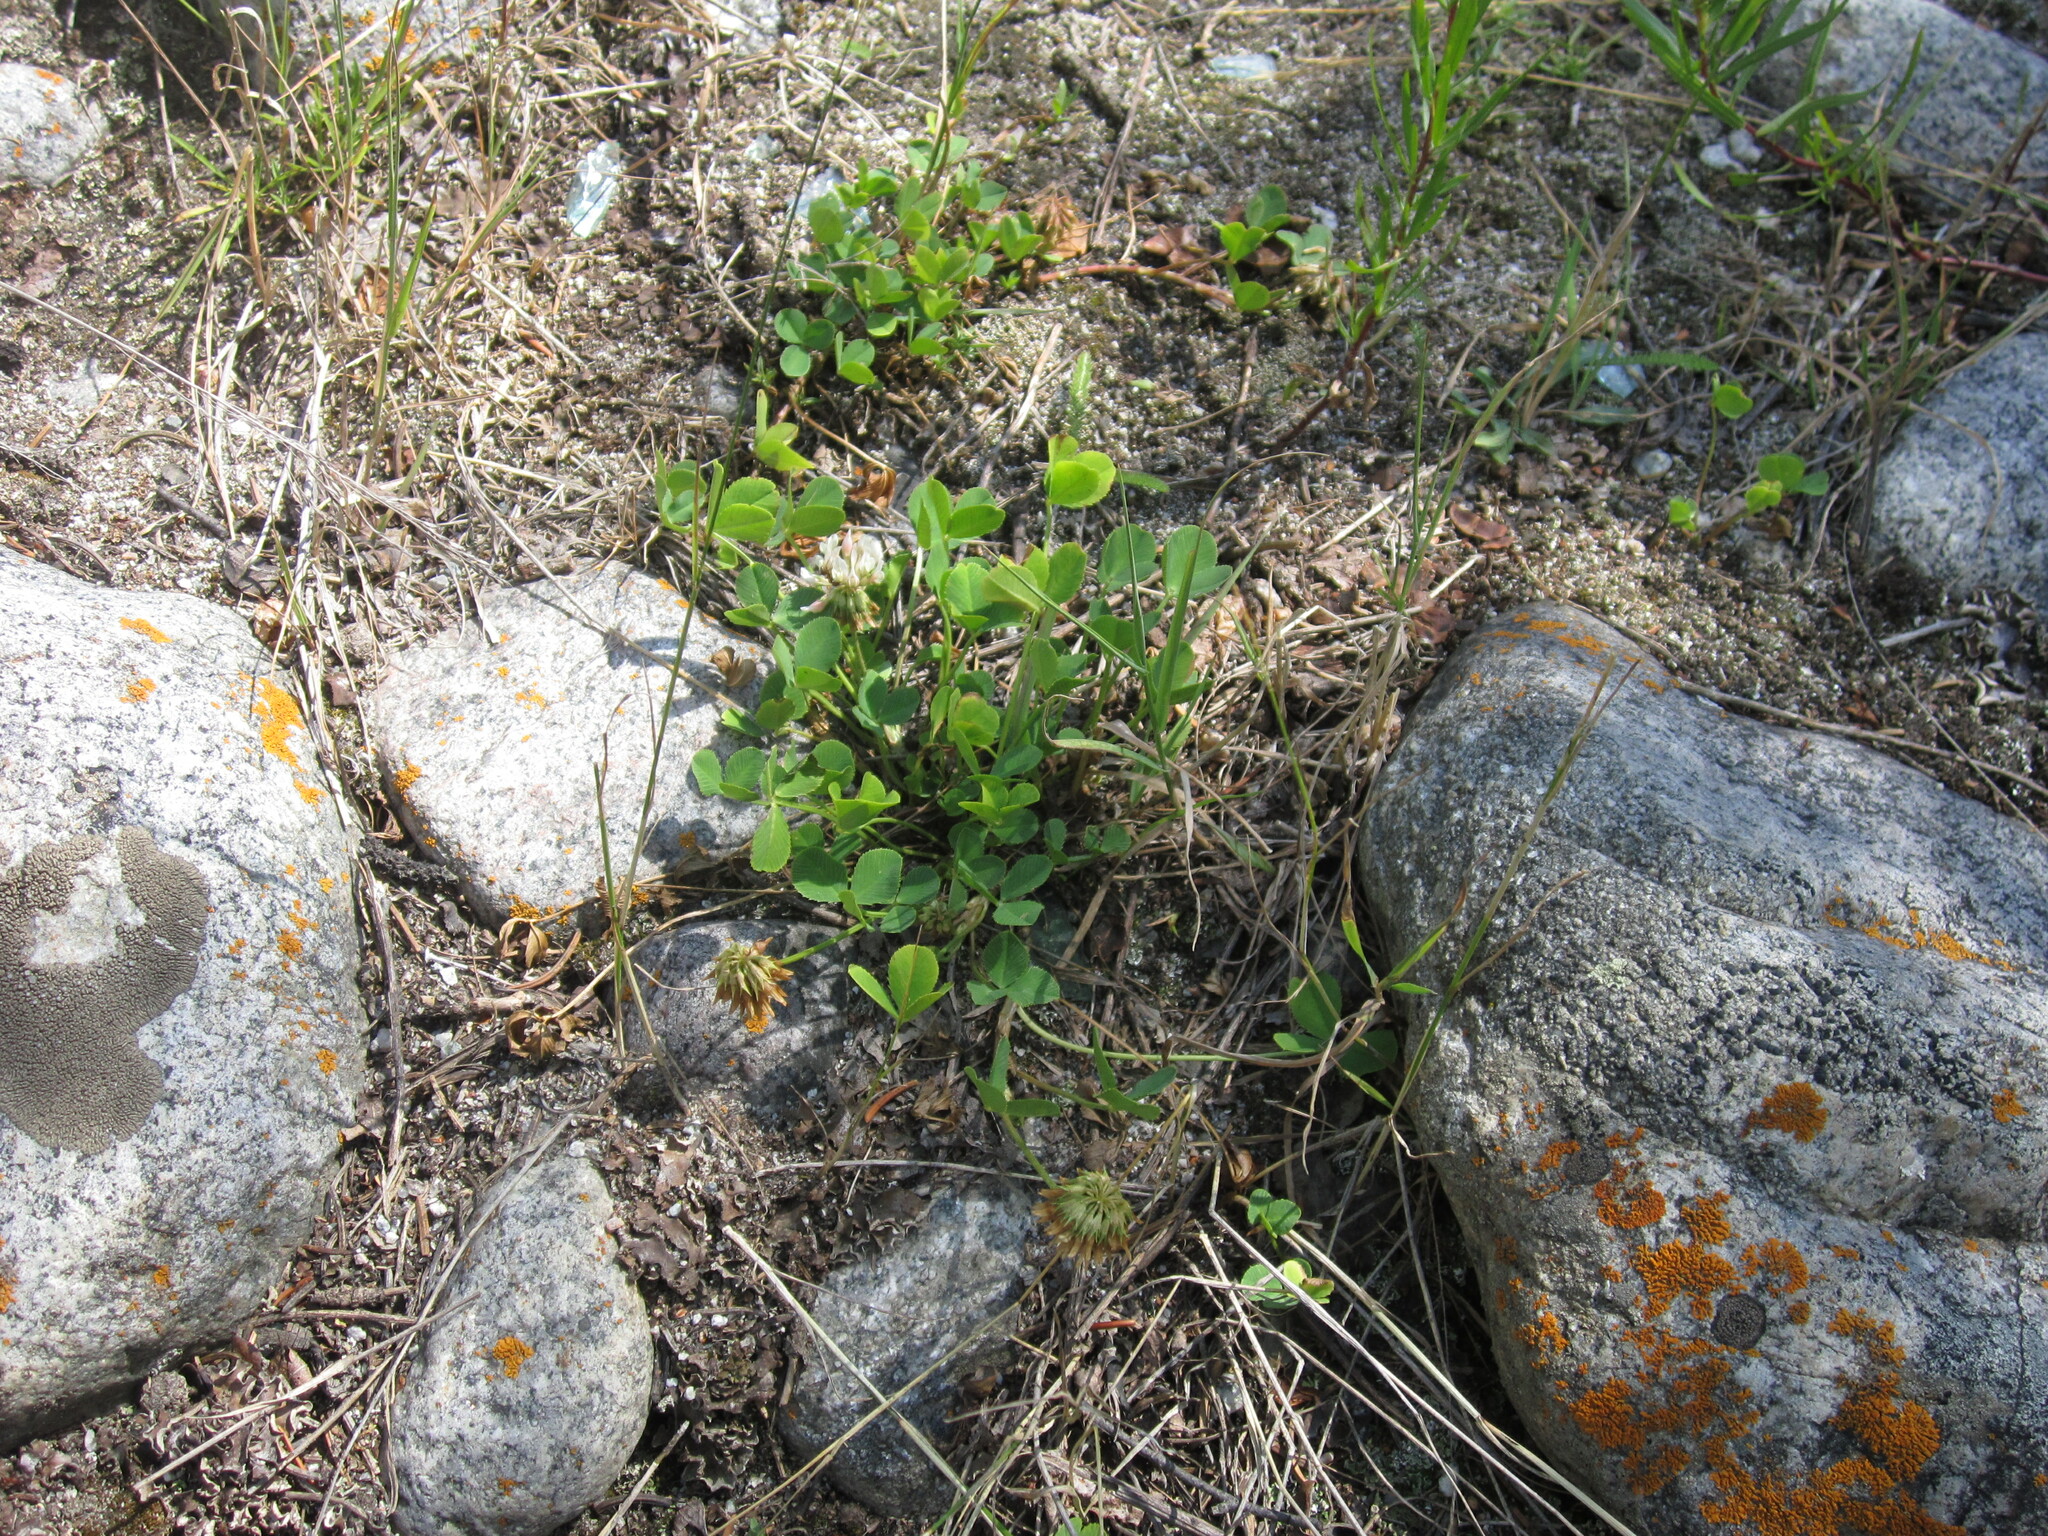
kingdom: Plantae
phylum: Tracheophyta
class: Magnoliopsida
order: Fabales
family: Fabaceae
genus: Trifolium
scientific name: Trifolium repens
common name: White clover
